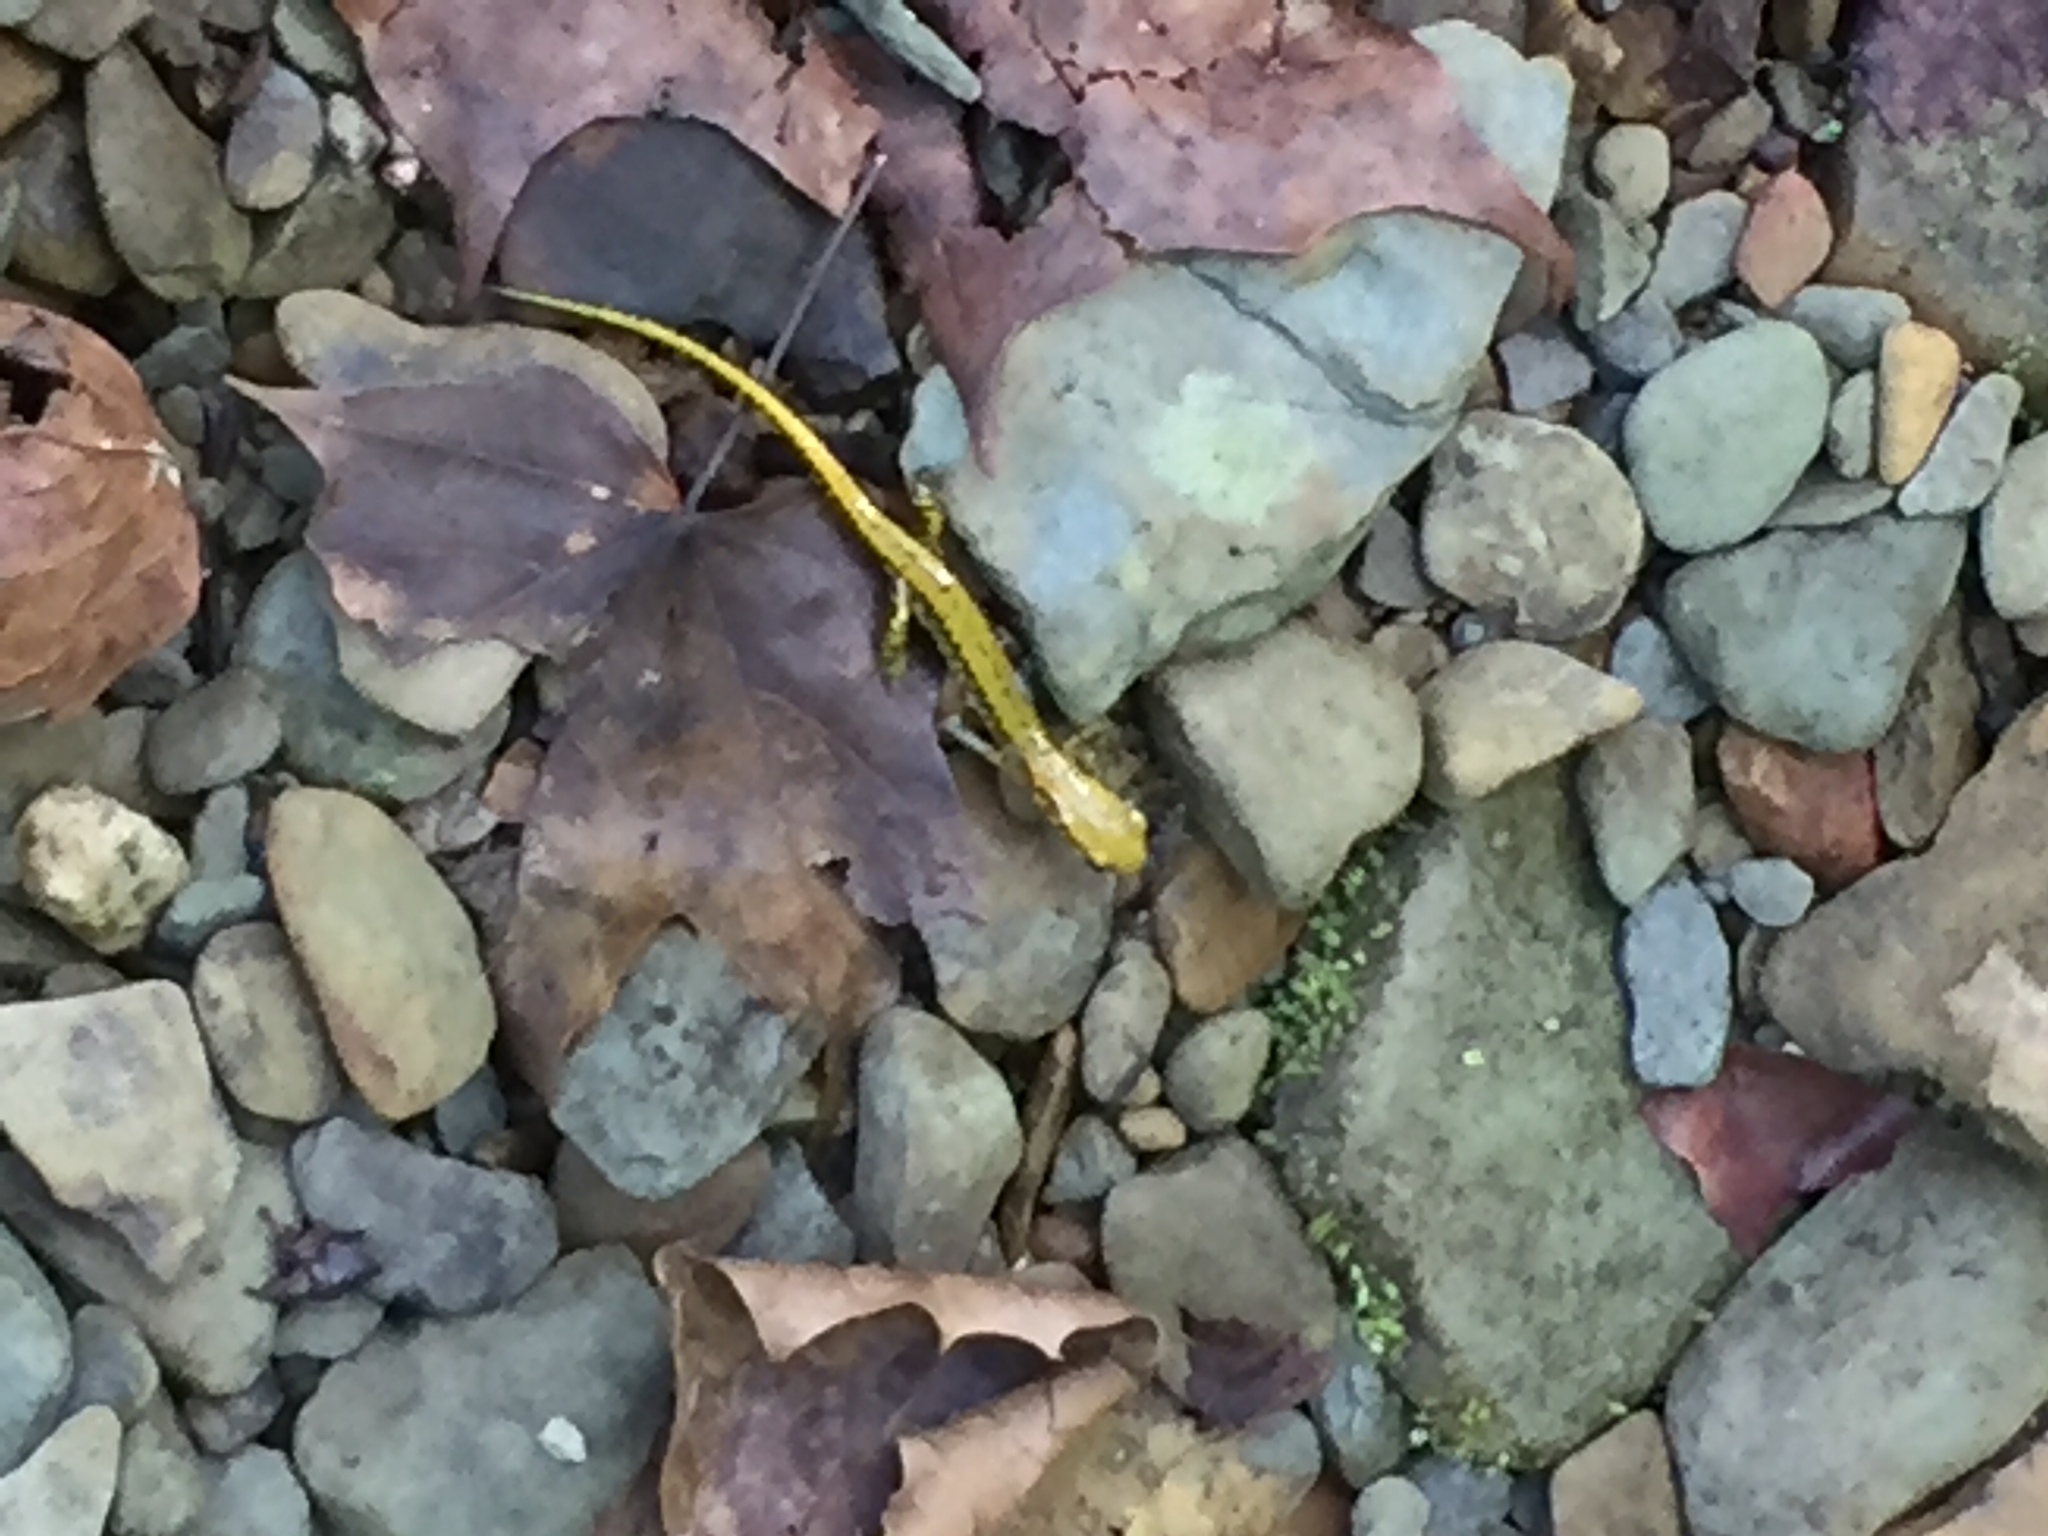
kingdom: Animalia
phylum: Chordata
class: Amphibia
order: Caudata
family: Plethodontidae
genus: Eurycea
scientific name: Eurycea longicauda
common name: Long-tailed salamander
